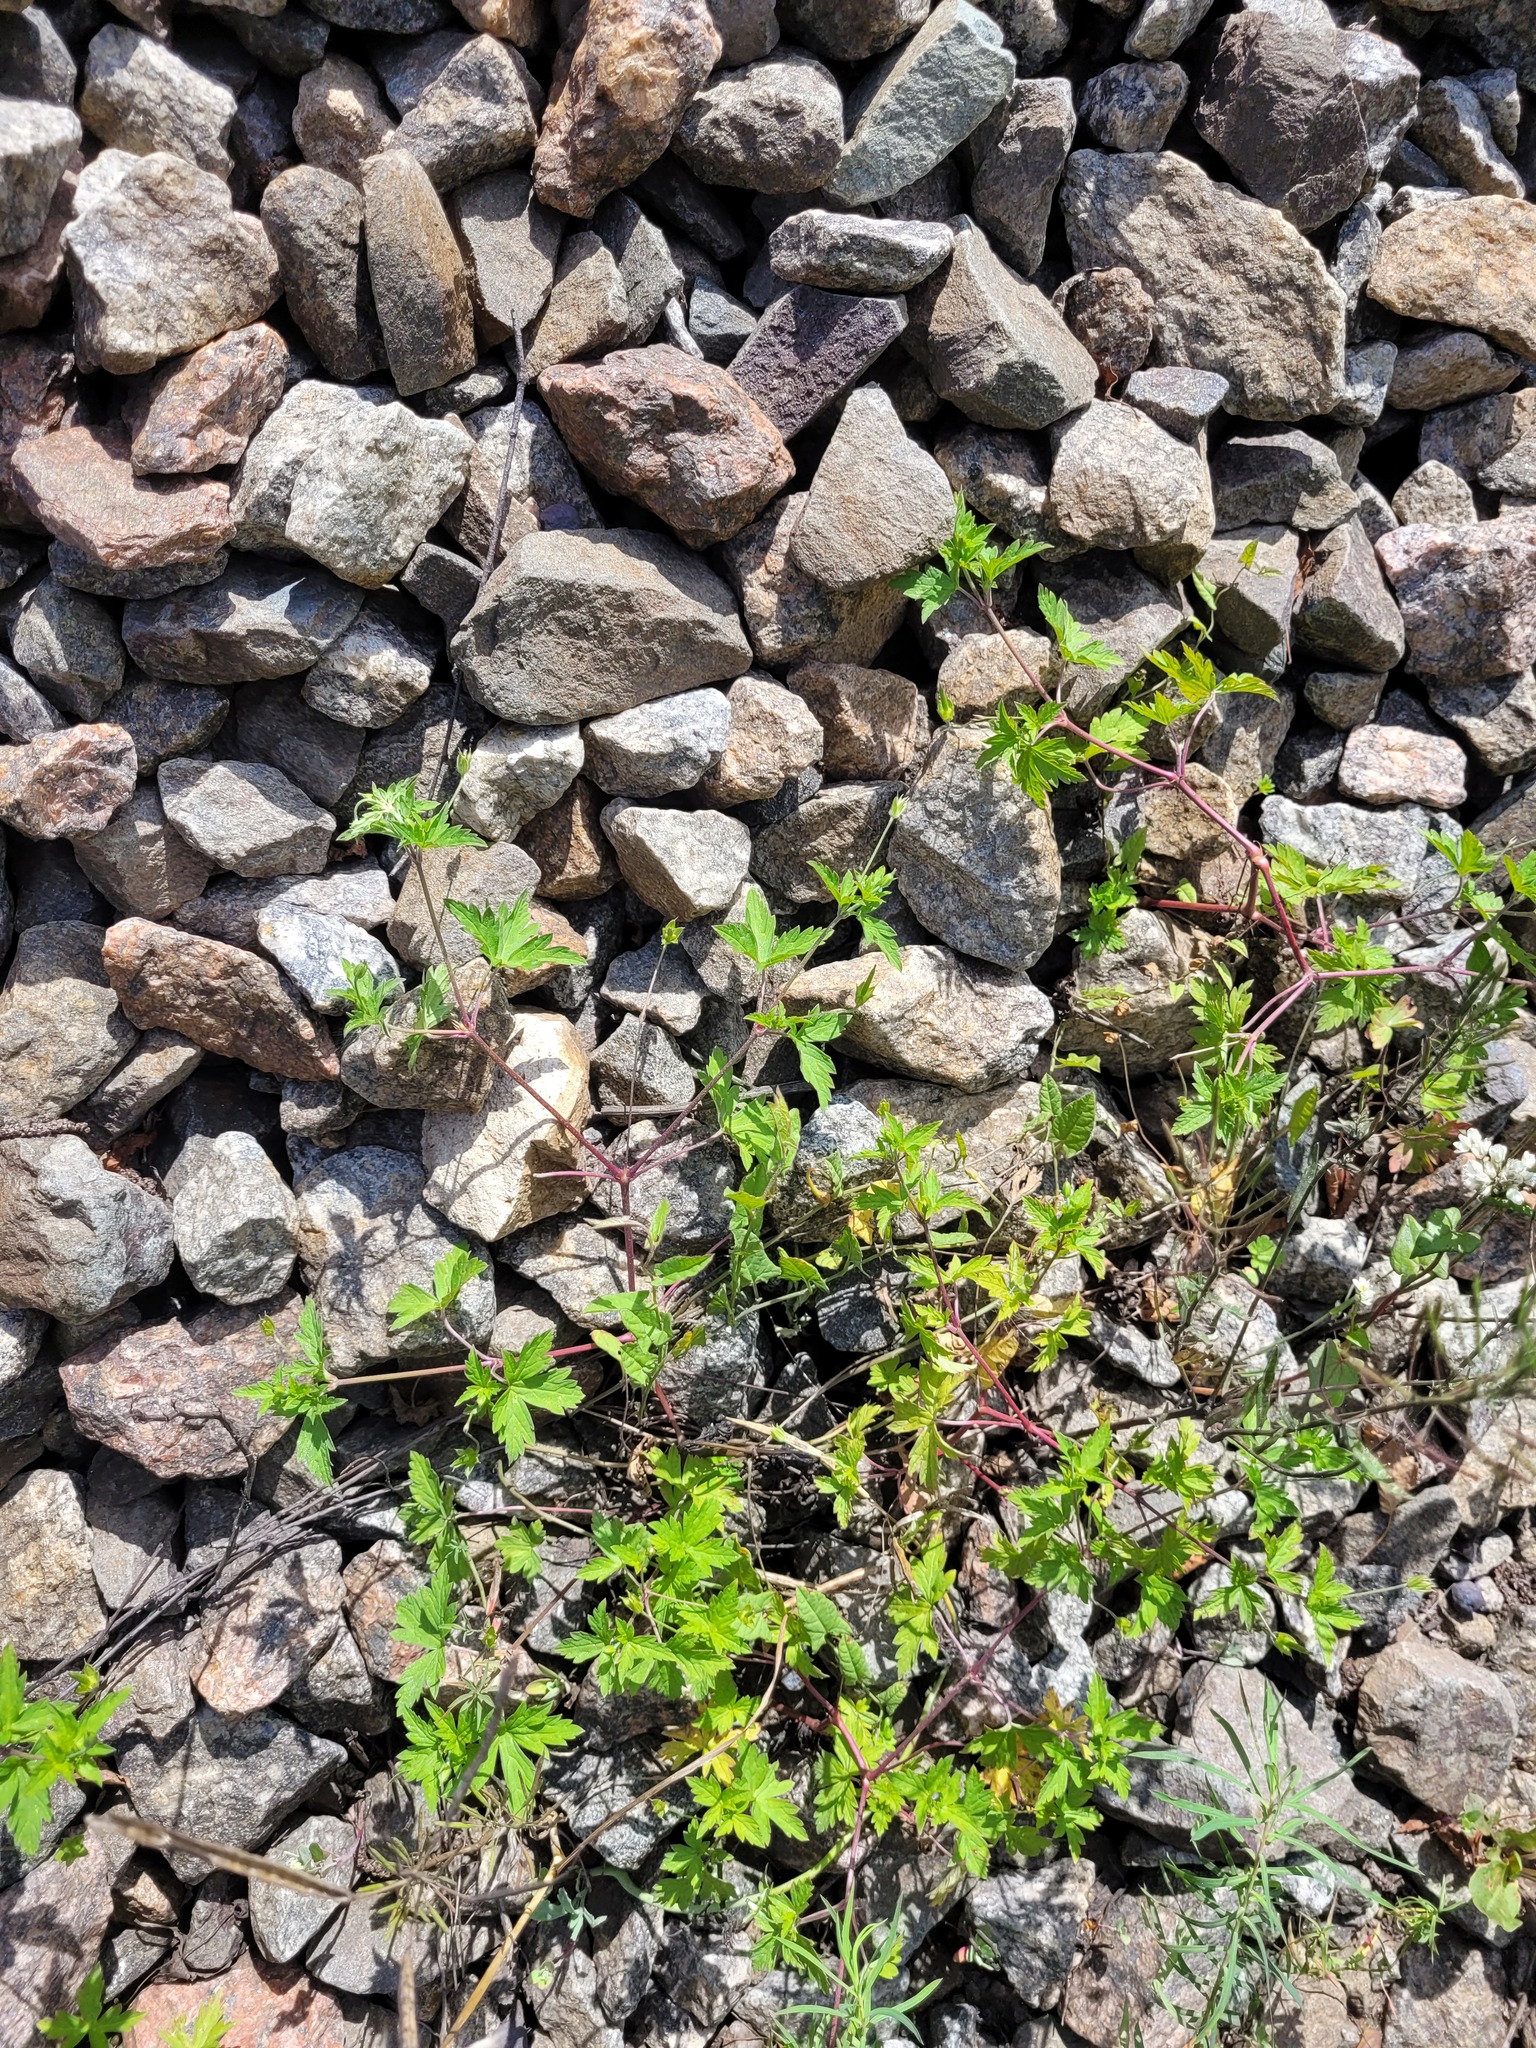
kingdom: Plantae
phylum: Tracheophyta
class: Magnoliopsida
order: Geraniales
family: Geraniaceae
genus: Geranium
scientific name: Geranium sibiricum
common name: Siberian crane's-bill
